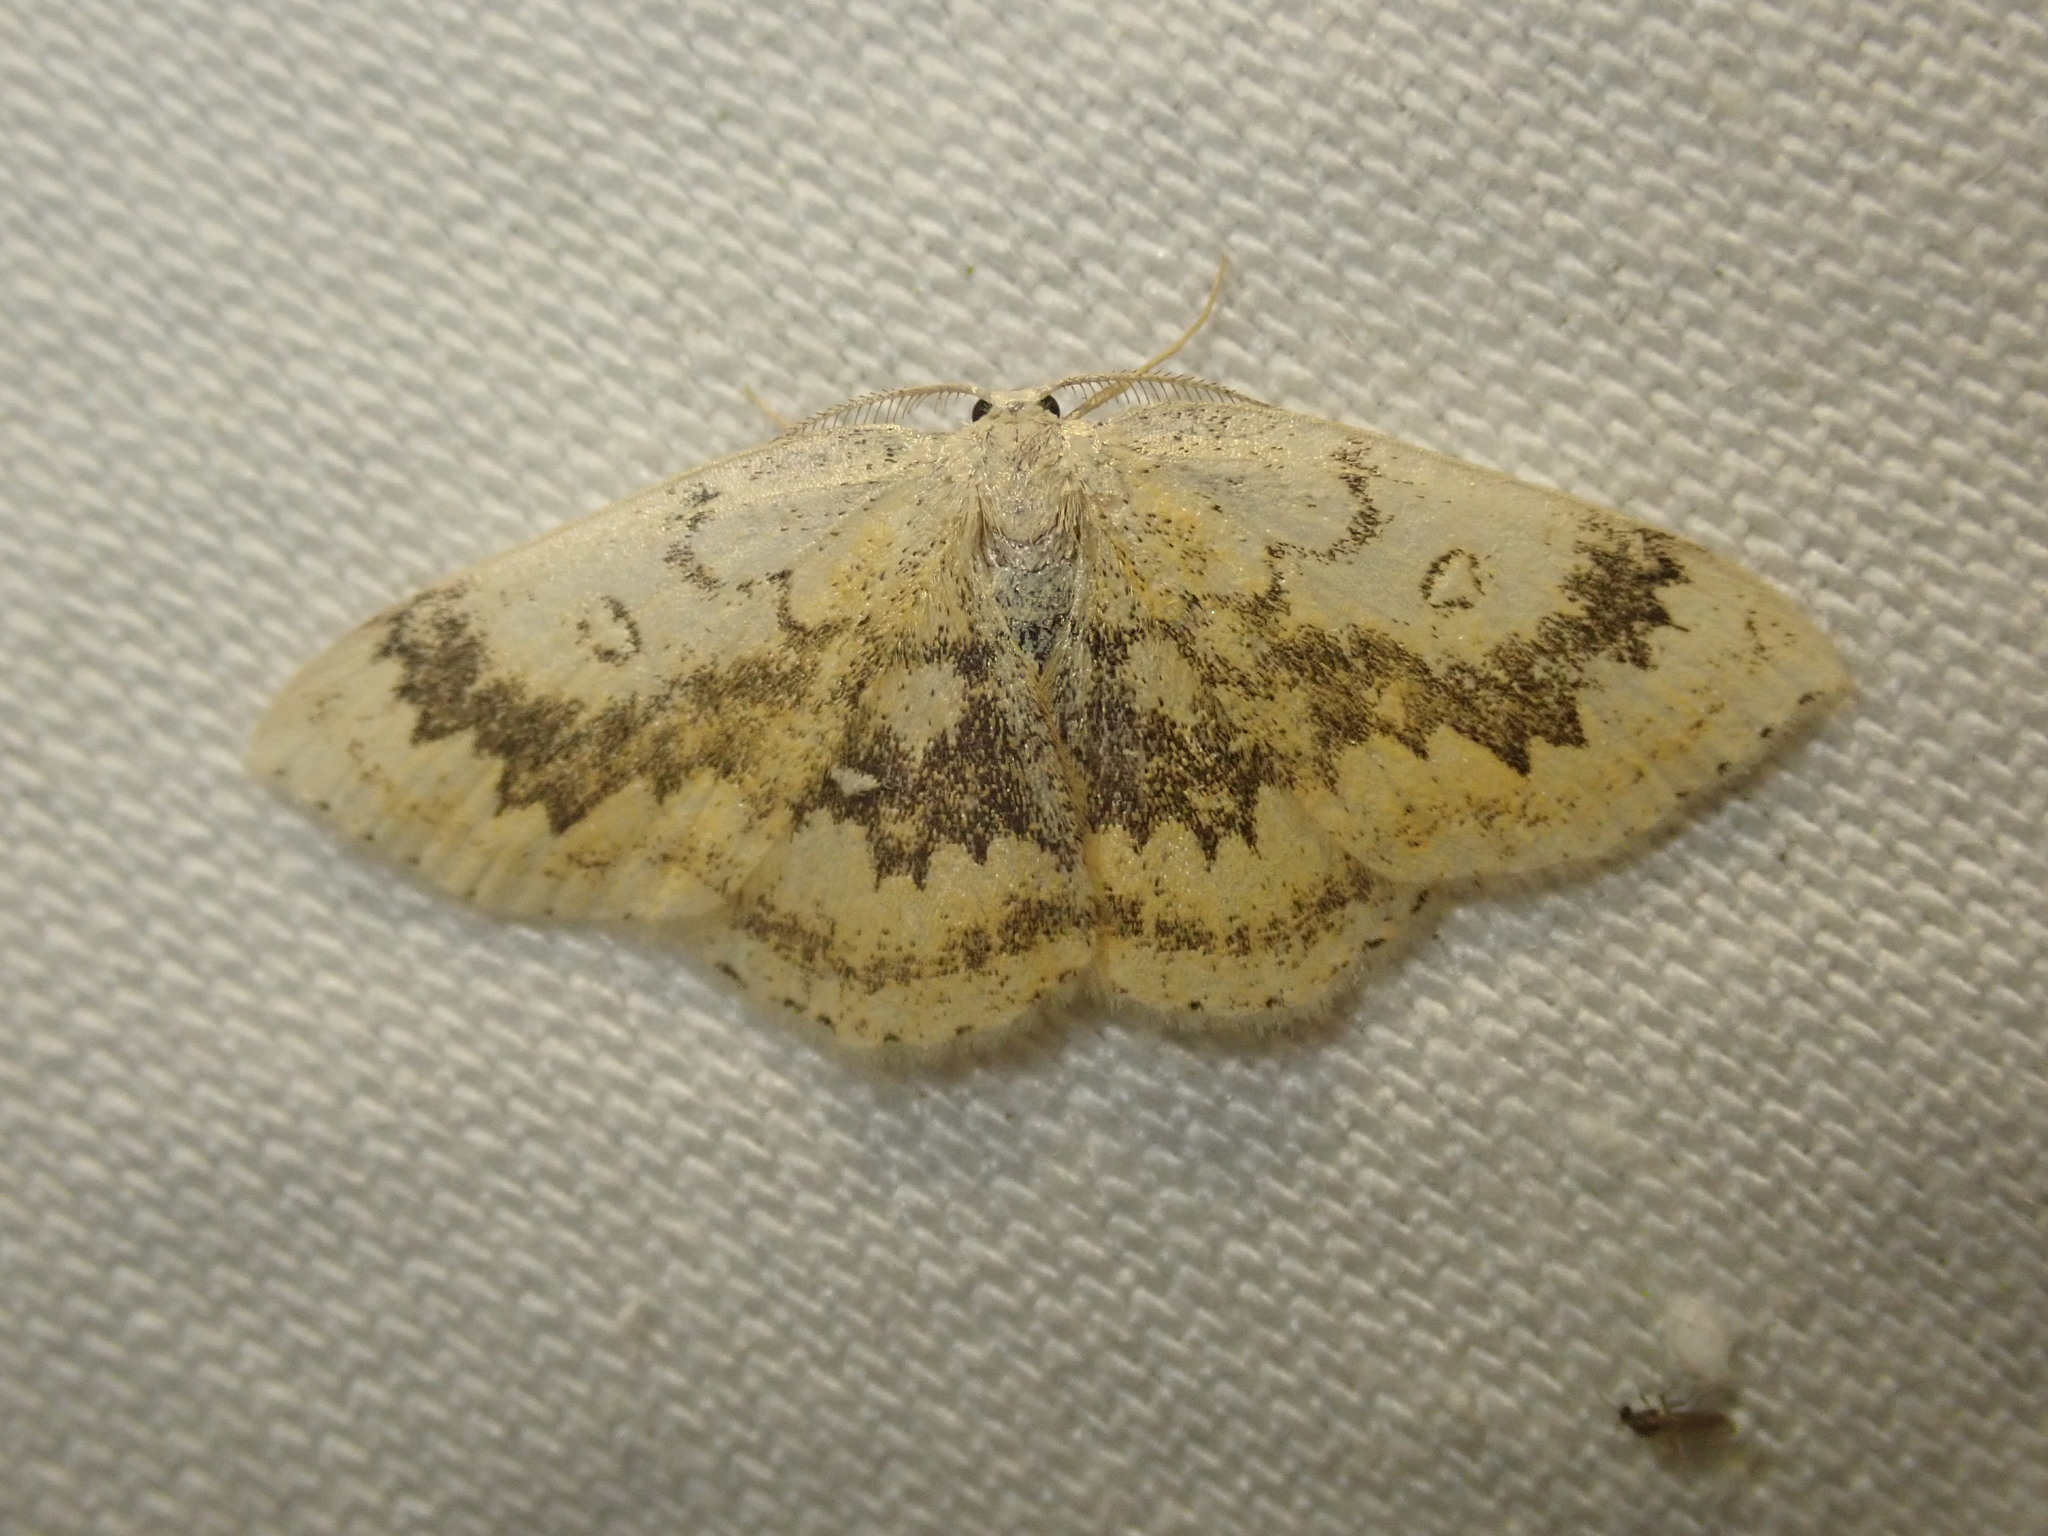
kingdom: Animalia
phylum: Arthropoda
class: Insecta
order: Lepidoptera
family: Geometridae
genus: Cyclophora
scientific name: Cyclophora annularia
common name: Mocha
